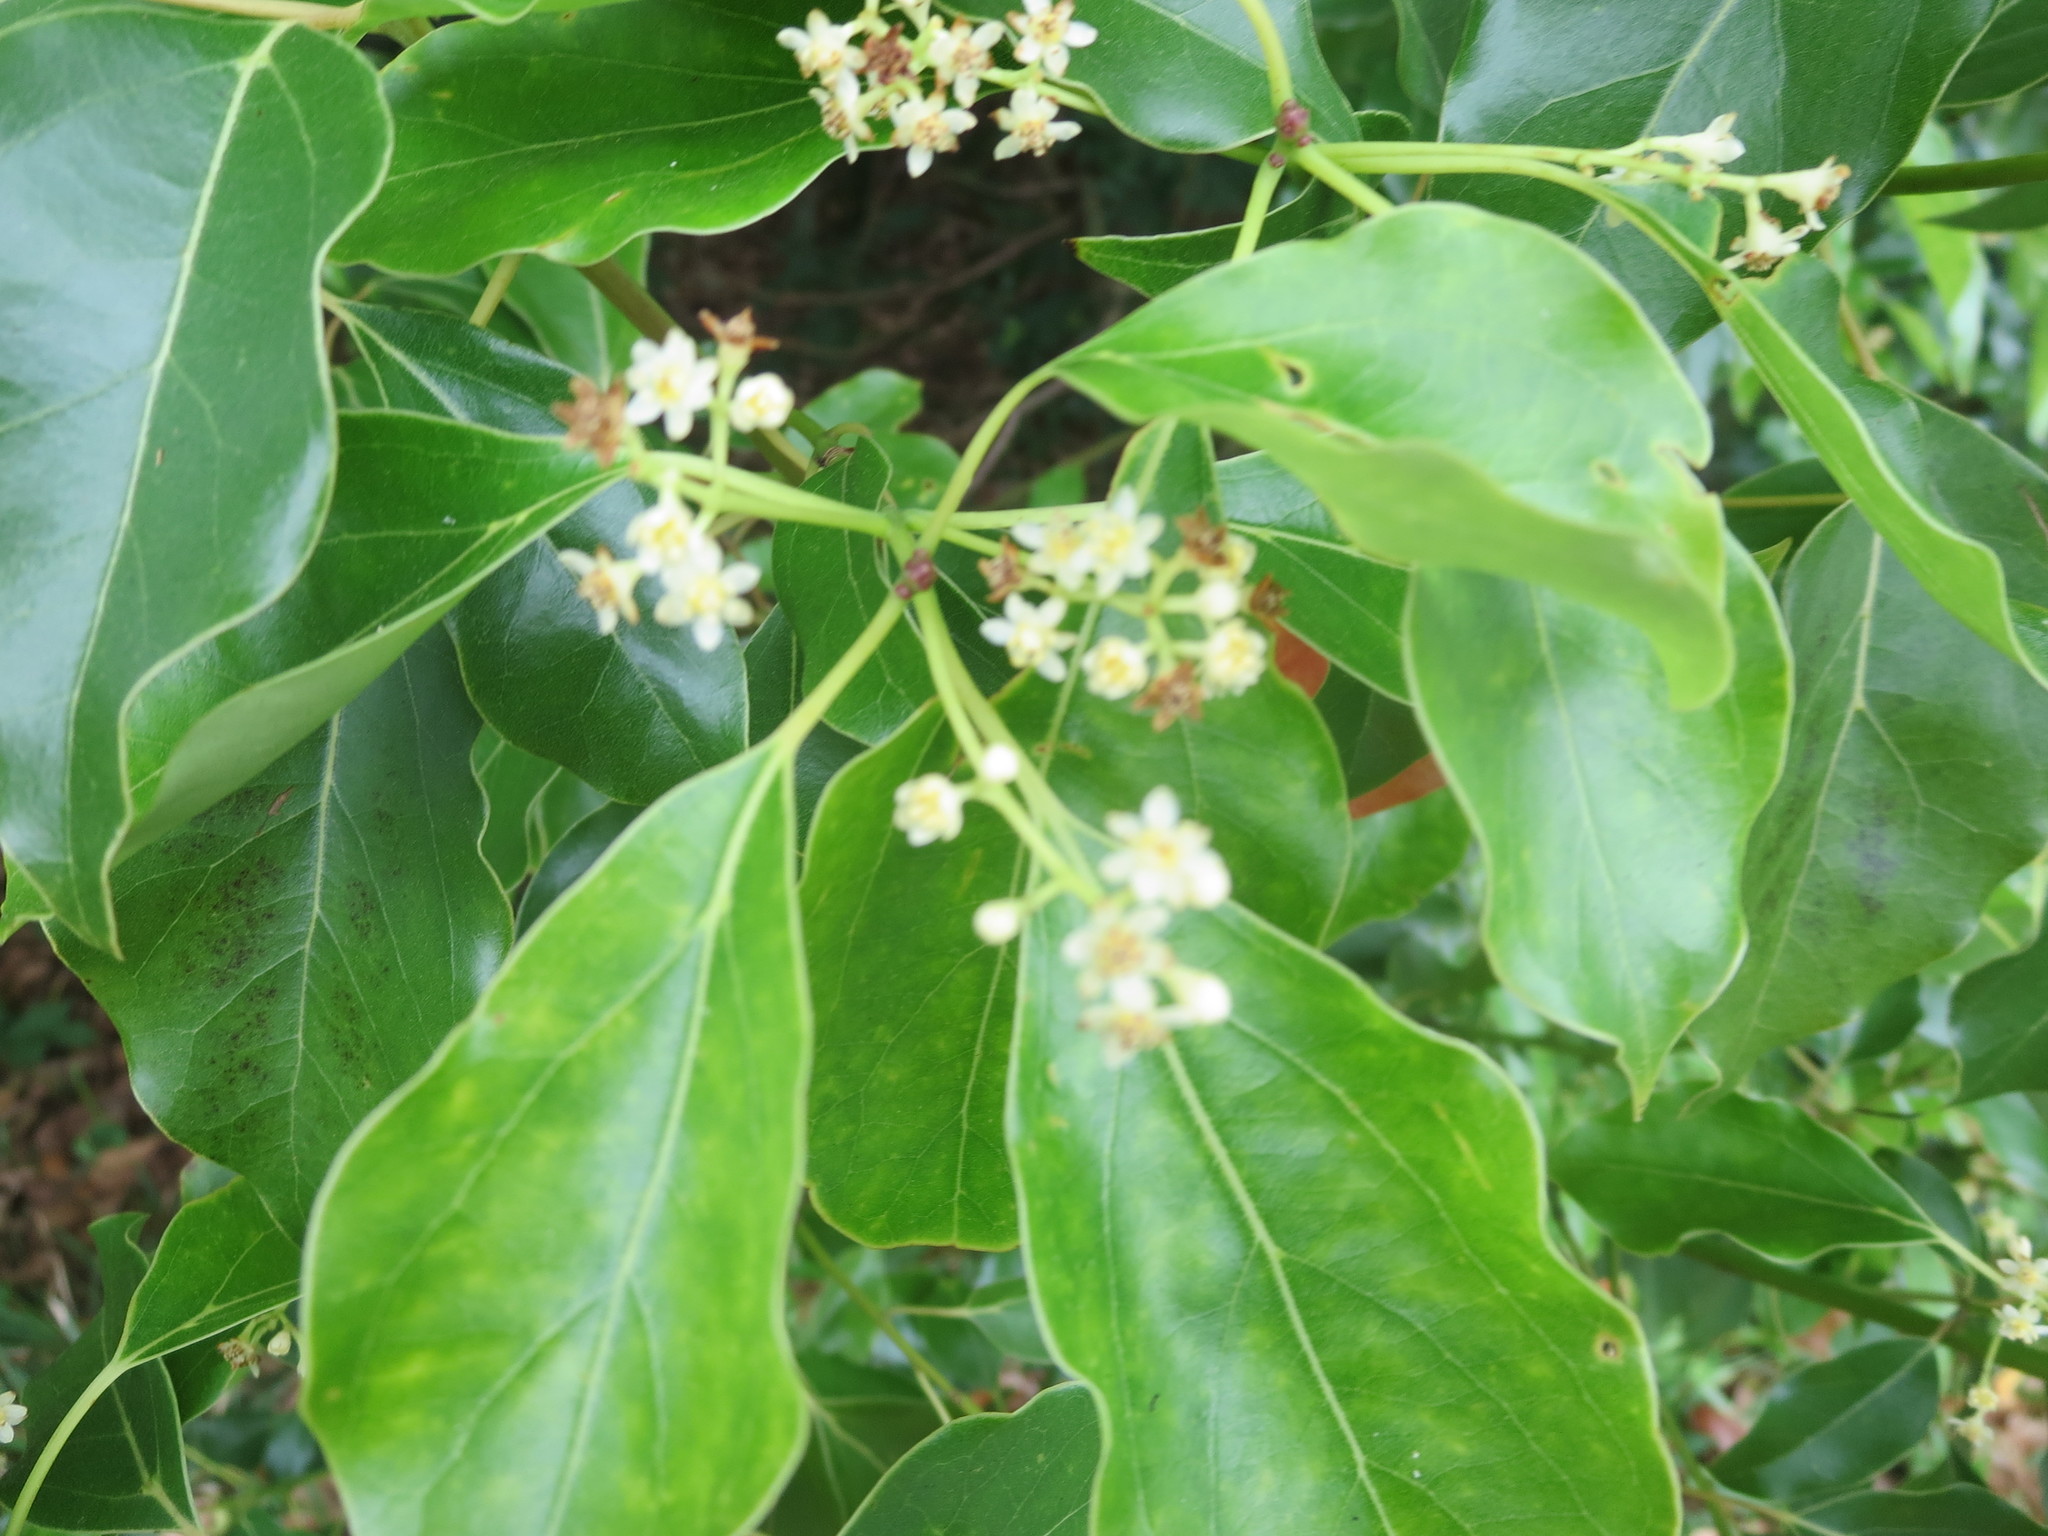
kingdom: Plantae
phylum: Tracheophyta
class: Magnoliopsida
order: Laurales
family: Lauraceae
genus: Cinnamomum
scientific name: Cinnamomum camphora
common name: Camphortree
